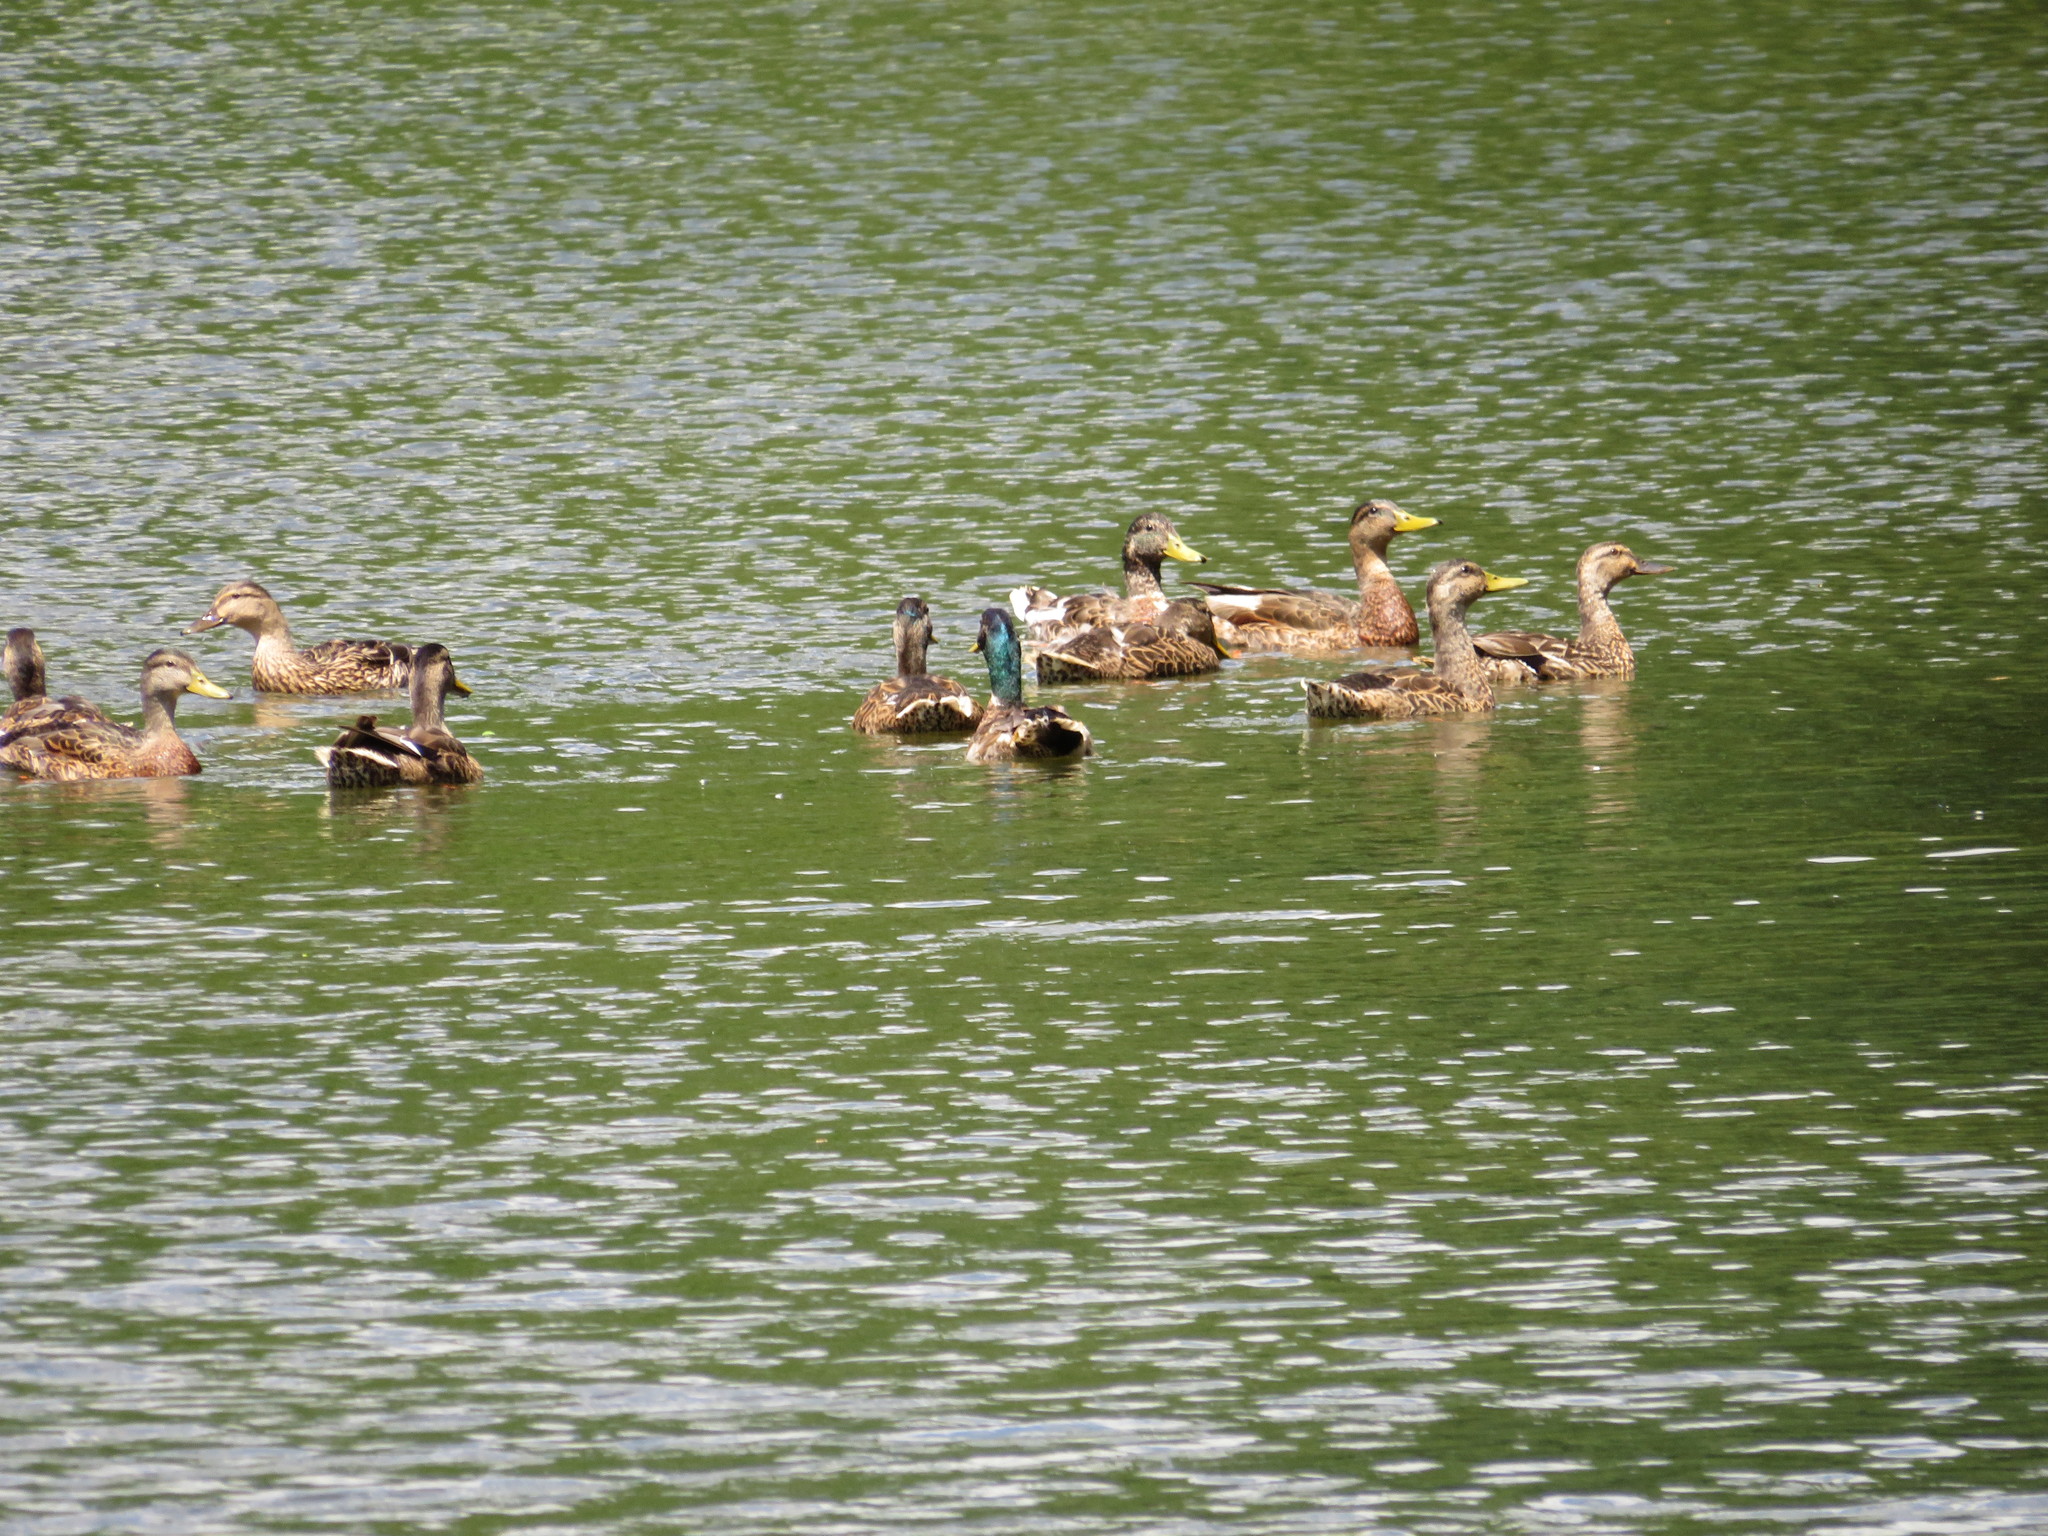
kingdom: Animalia
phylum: Chordata
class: Aves
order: Anseriformes
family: Anatidae
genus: Anas
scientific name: Anas platyrhynchos
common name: Mallard
